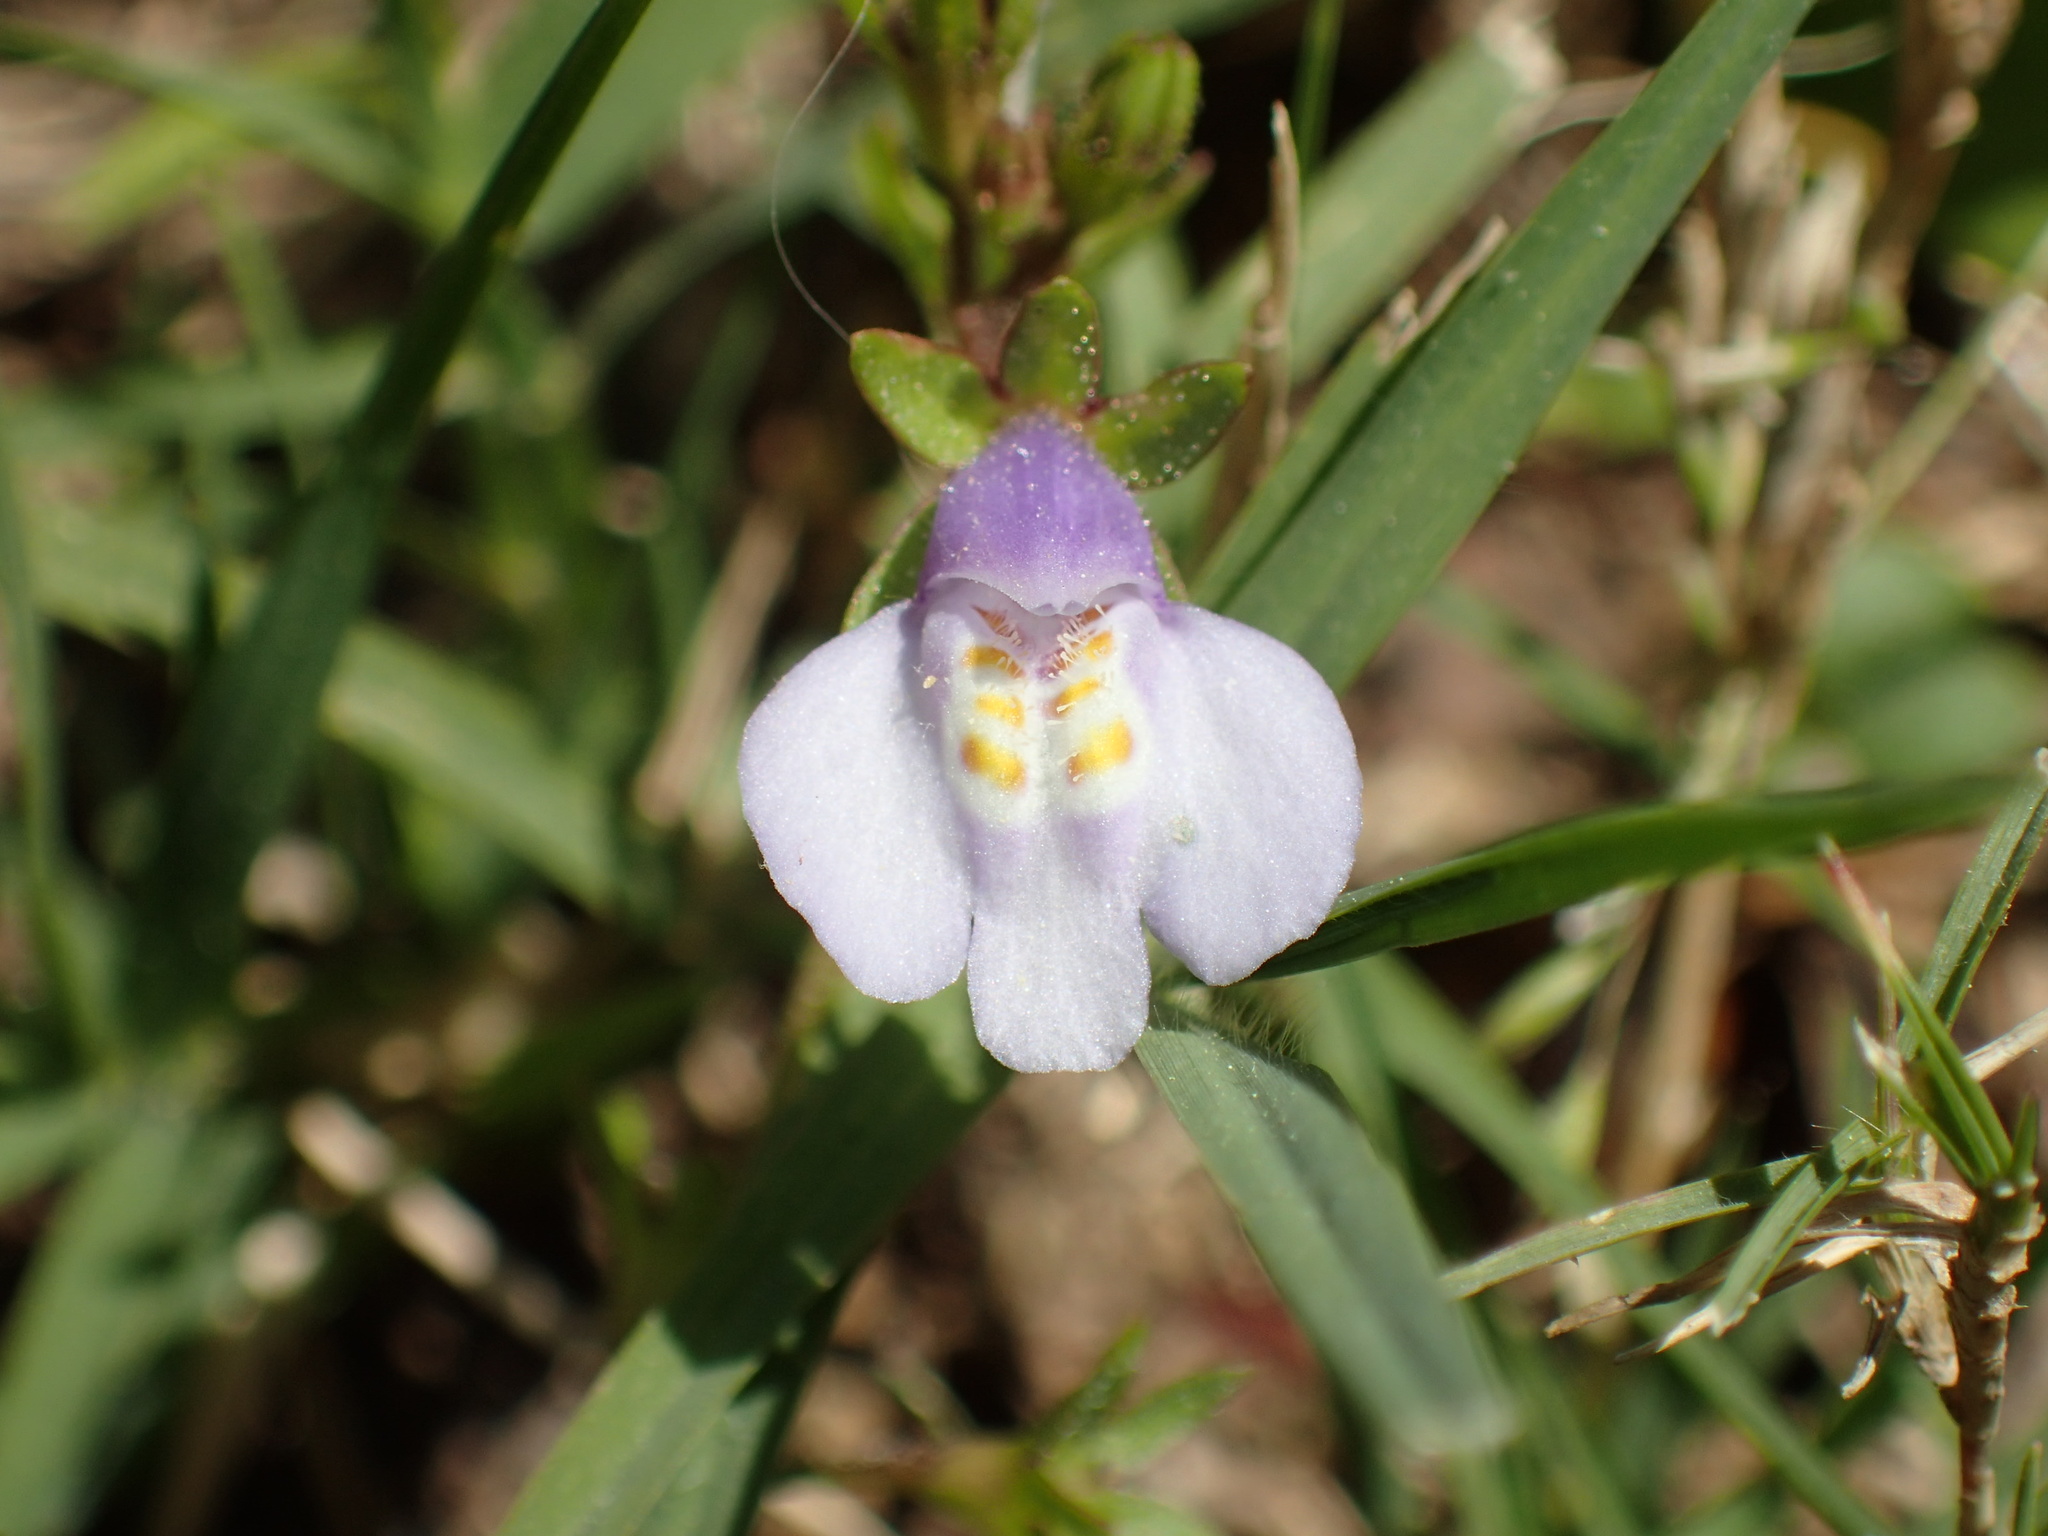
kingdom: Plantae
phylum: Tracheophyta
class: Magnoliopsida
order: Lamiales
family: Mazaceae
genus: Mazus
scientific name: Mazus pumilus
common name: Japanese mazus
